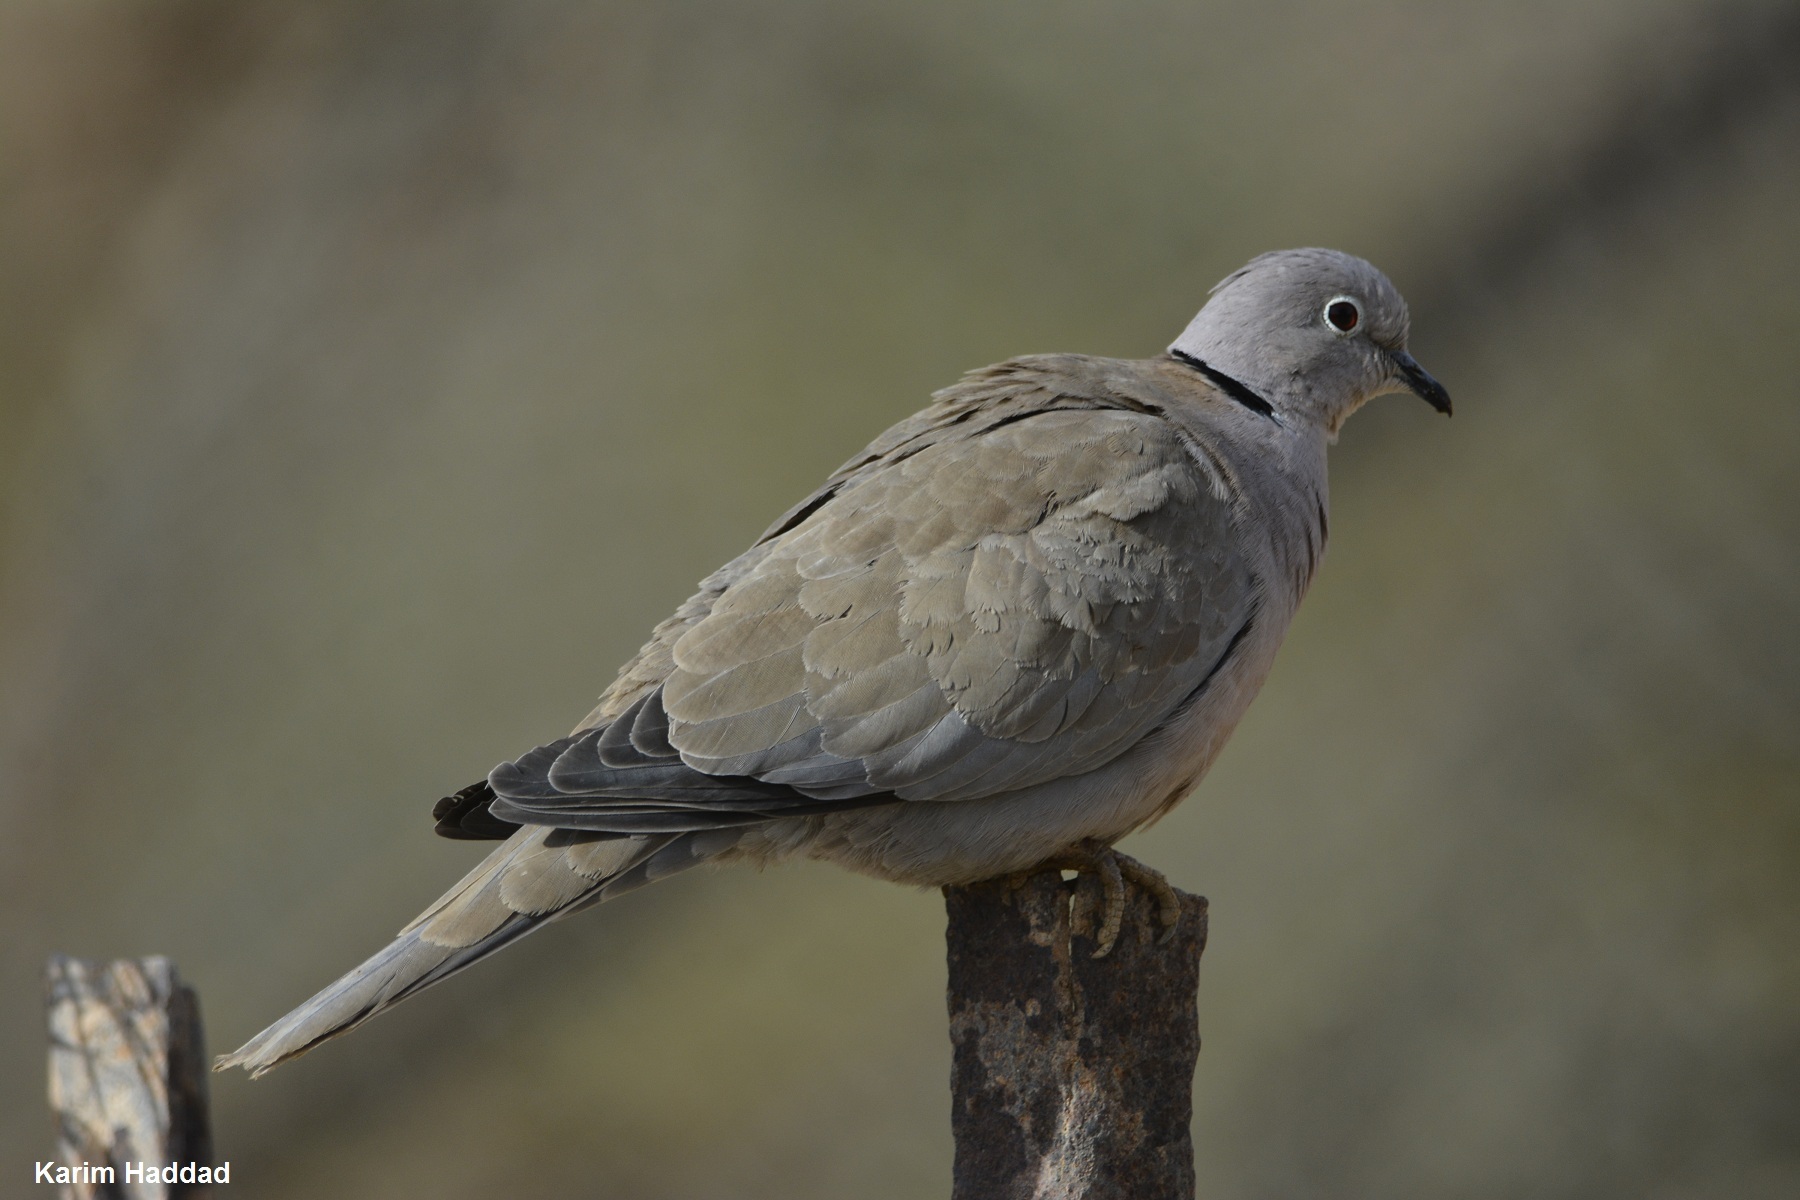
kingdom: Animalia
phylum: Chordata
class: Aves
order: Columbiformes
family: Columbidae
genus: Streptopelia
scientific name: Streptopelia decaocto
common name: Eurasian collared dove
